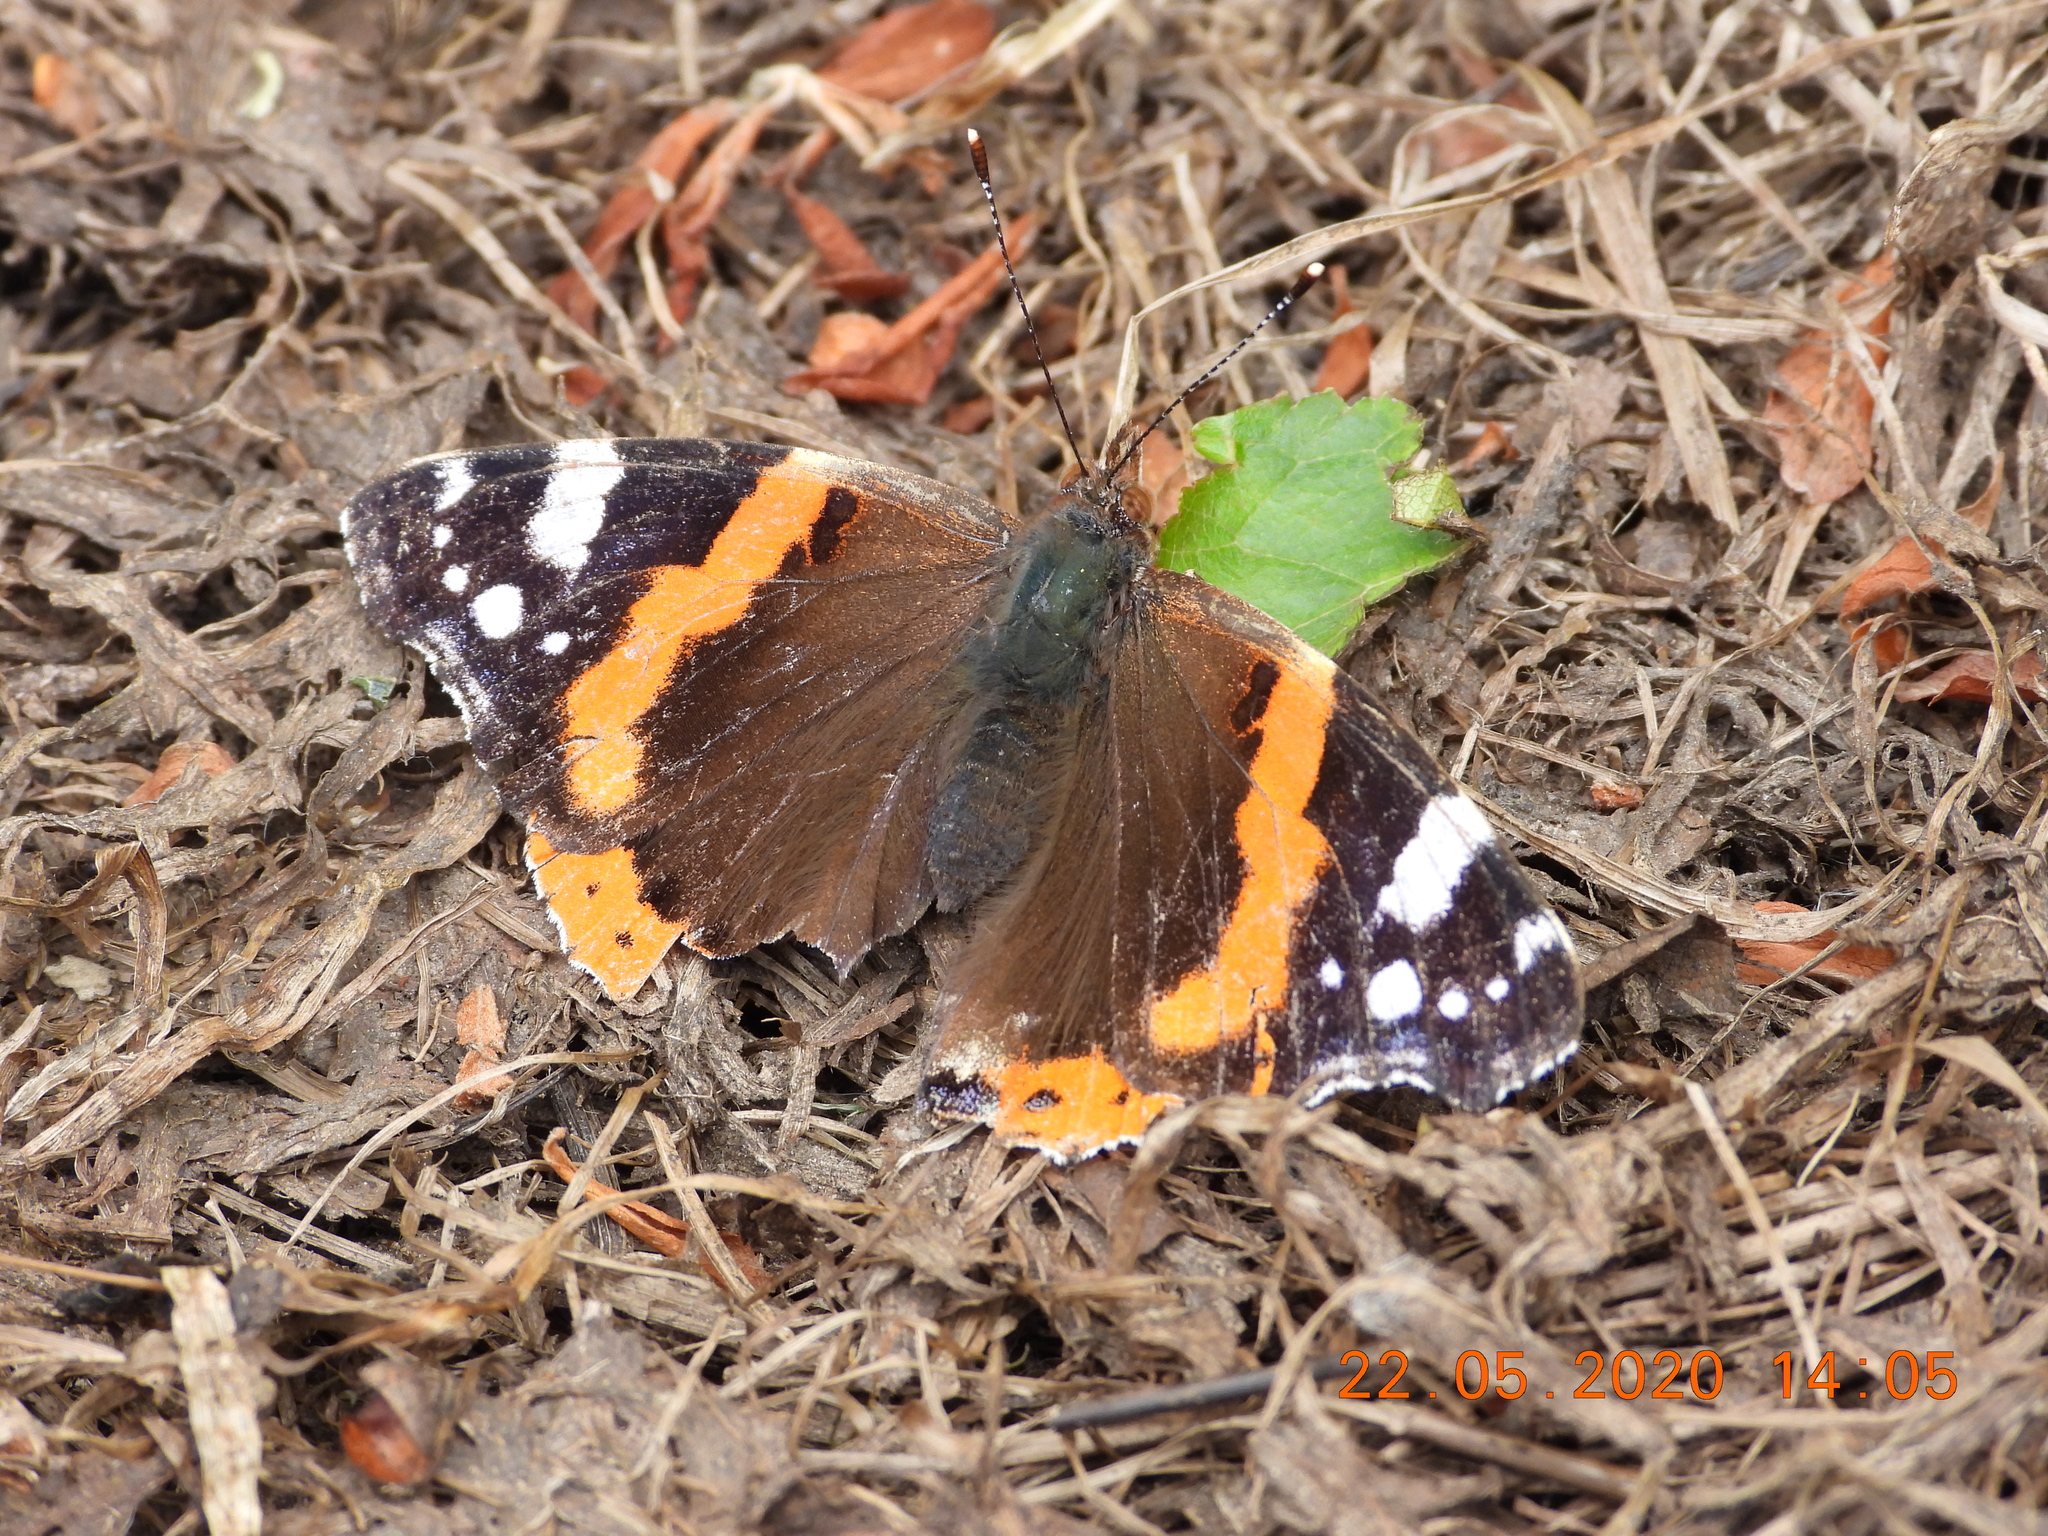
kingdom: Animalia
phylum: Arthropoda
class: Insecta
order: Lepidoptera
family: Nymphalidae
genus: Vanessa
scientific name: Vanessa atalanta
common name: Red admiral
